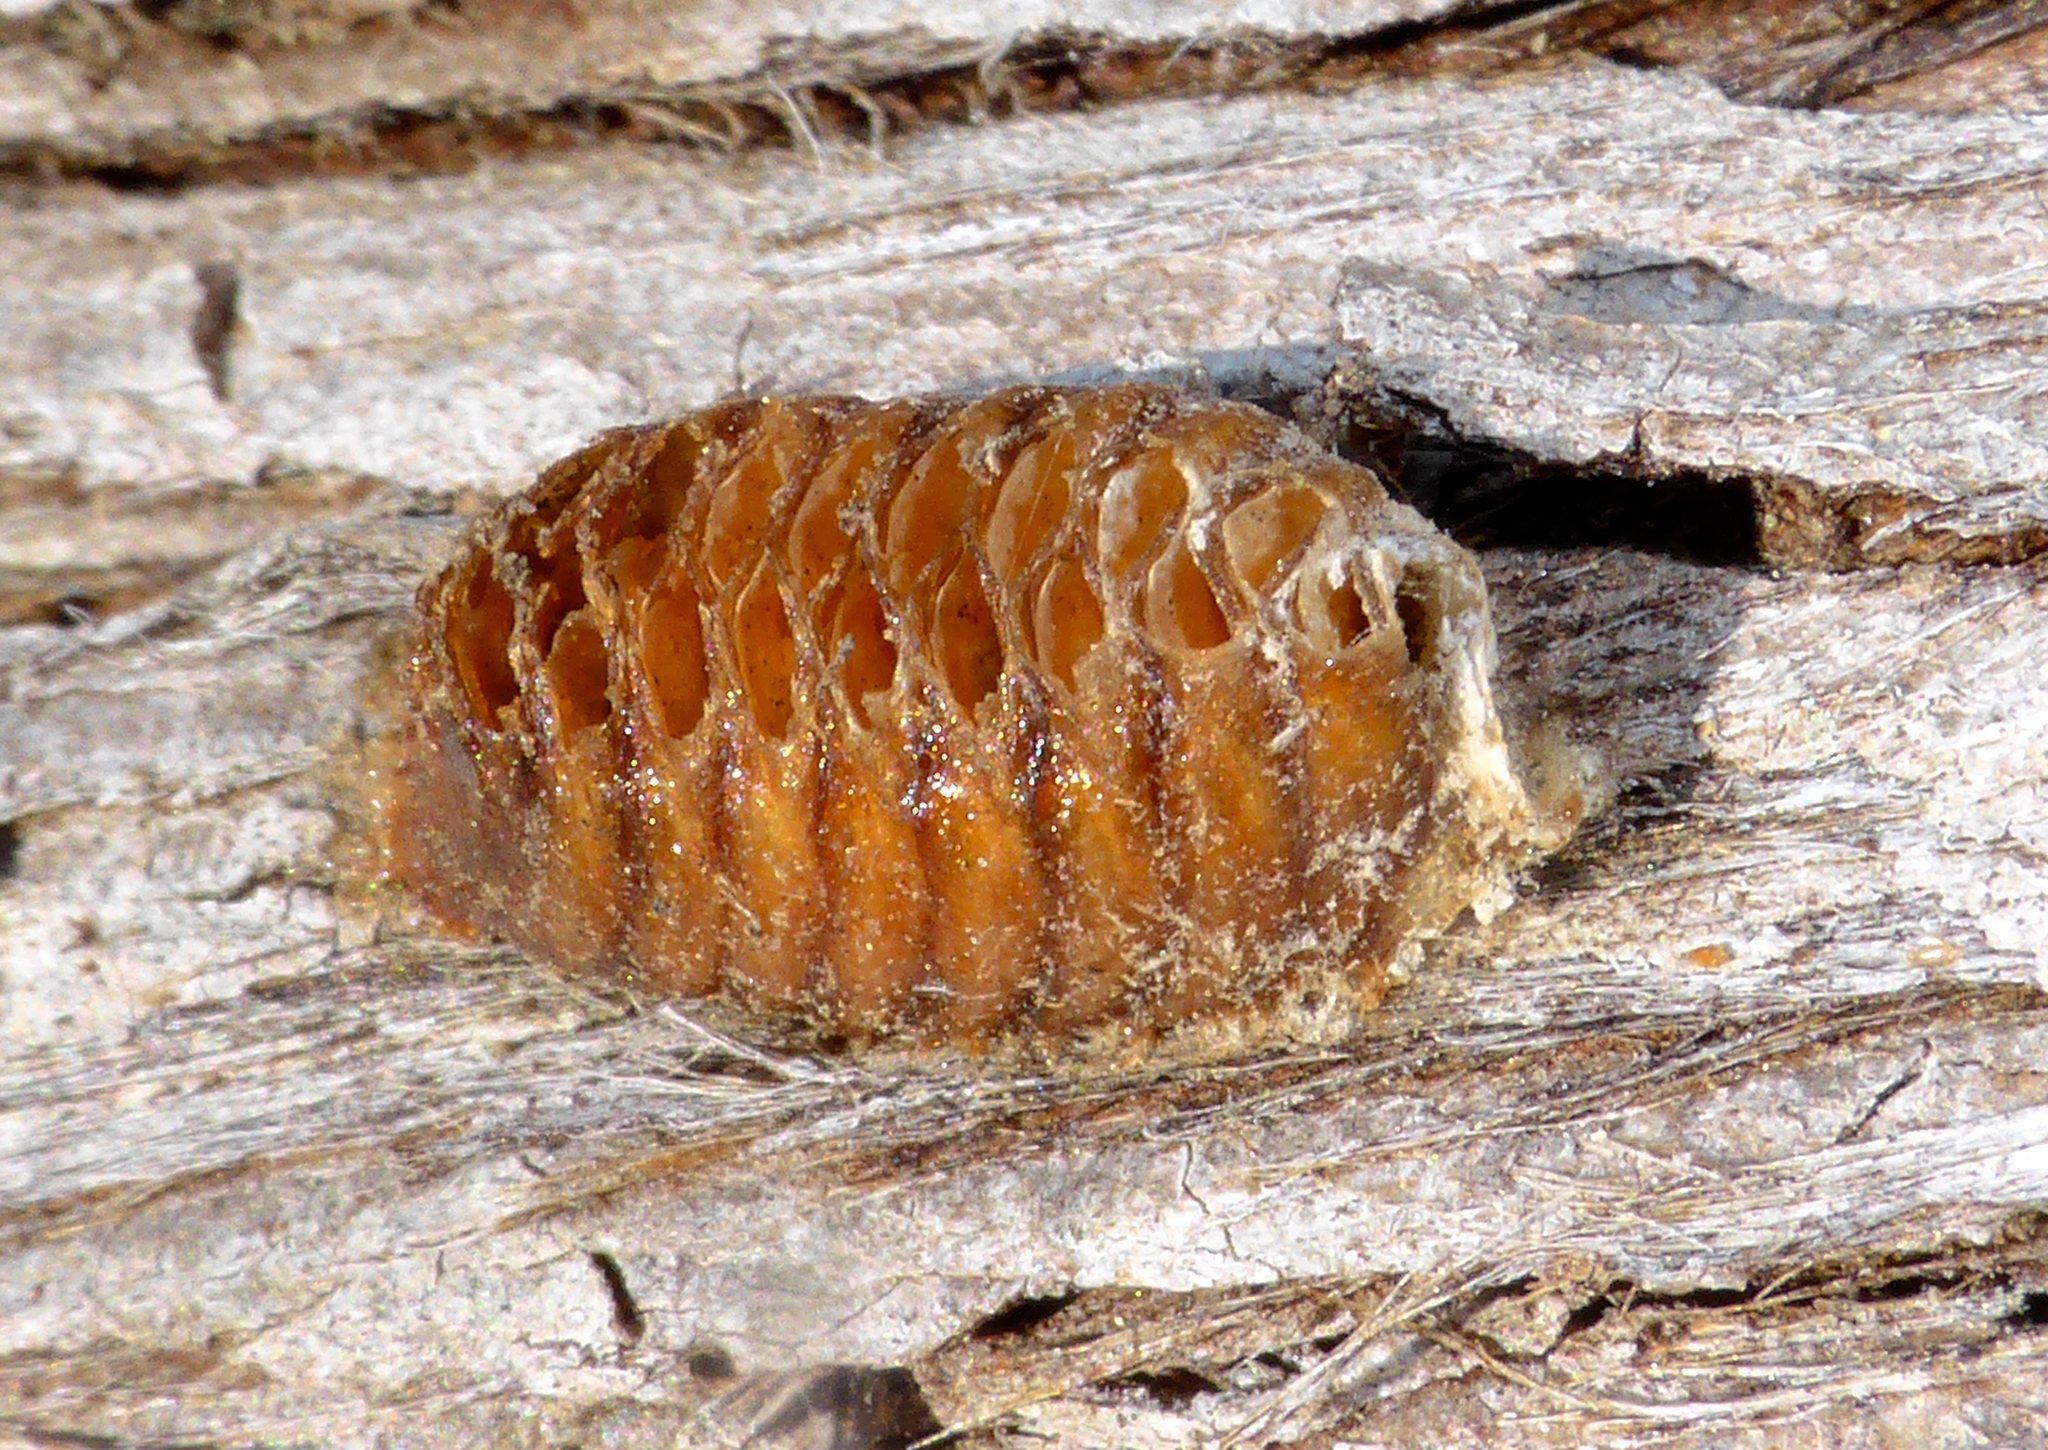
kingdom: Animalia
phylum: Arthropoda
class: Insecta
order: Mantodea
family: Mantidae
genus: Orthodera
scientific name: Orthodera novaezealandiae
